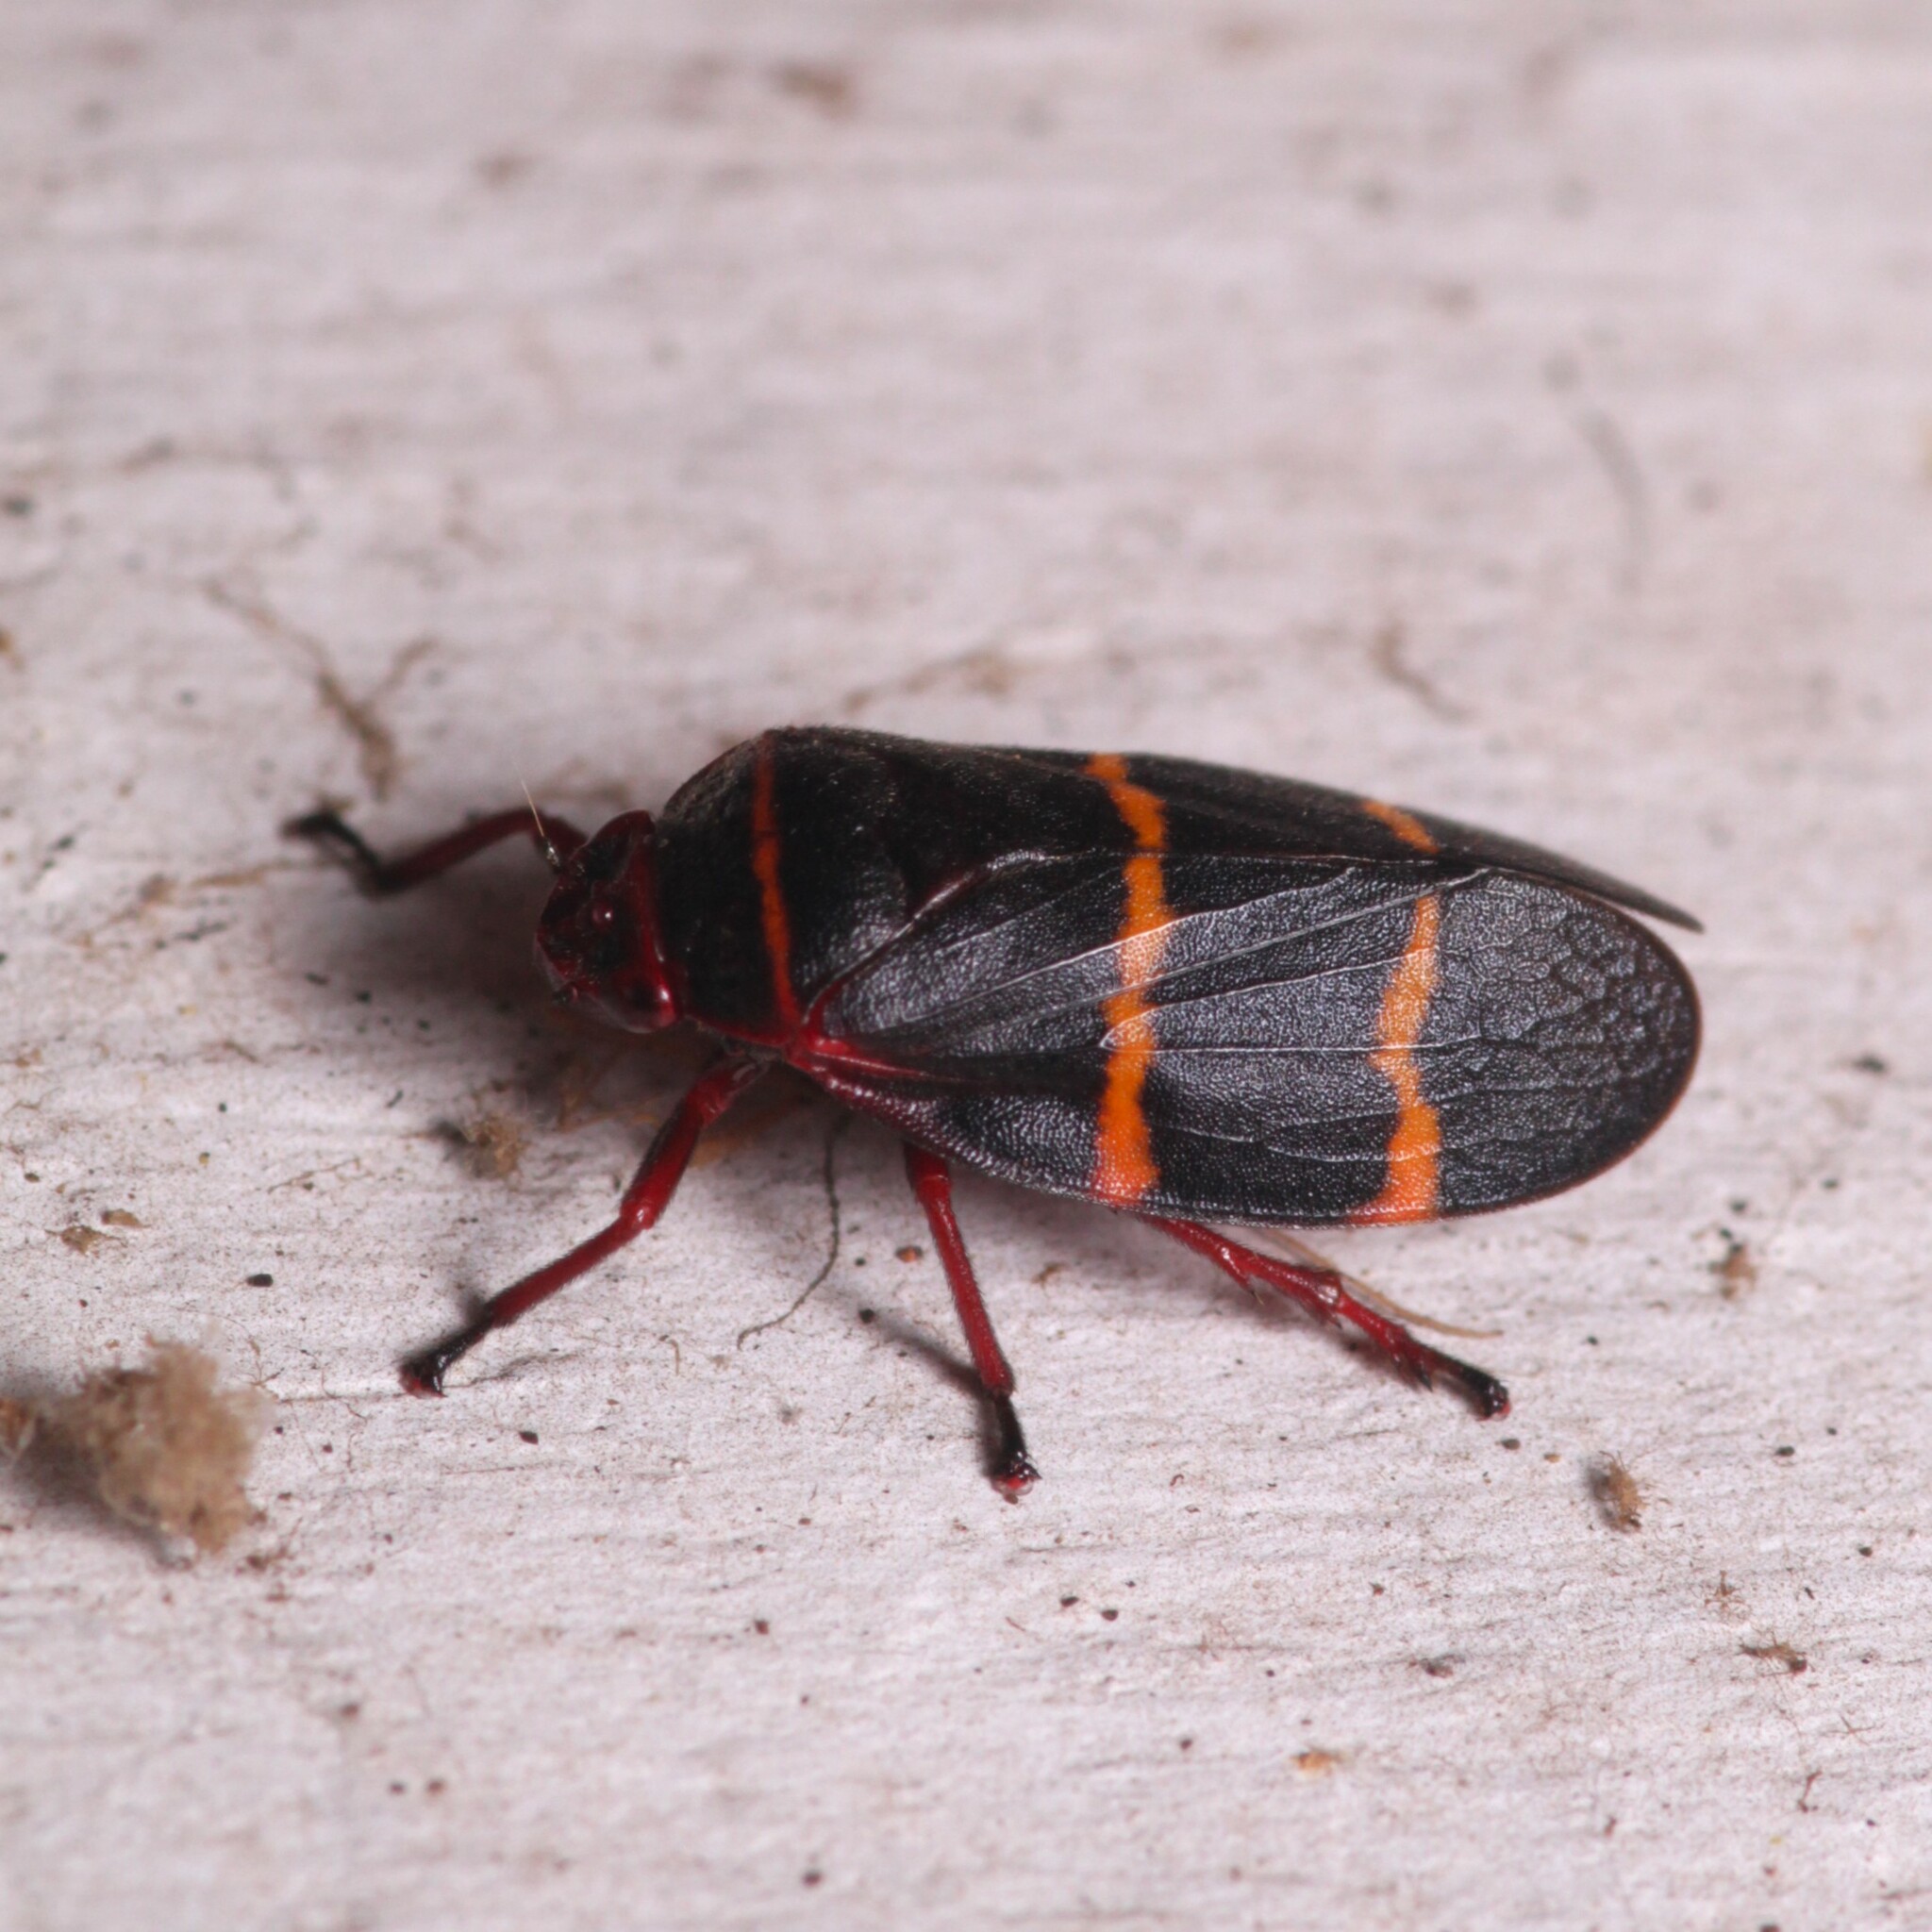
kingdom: Animalia
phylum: Arthropoda
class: Insecta
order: Hemiptera
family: Cercopidae
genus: Prosapia
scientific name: Prosapia bicincta
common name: Twolined spittlebug
